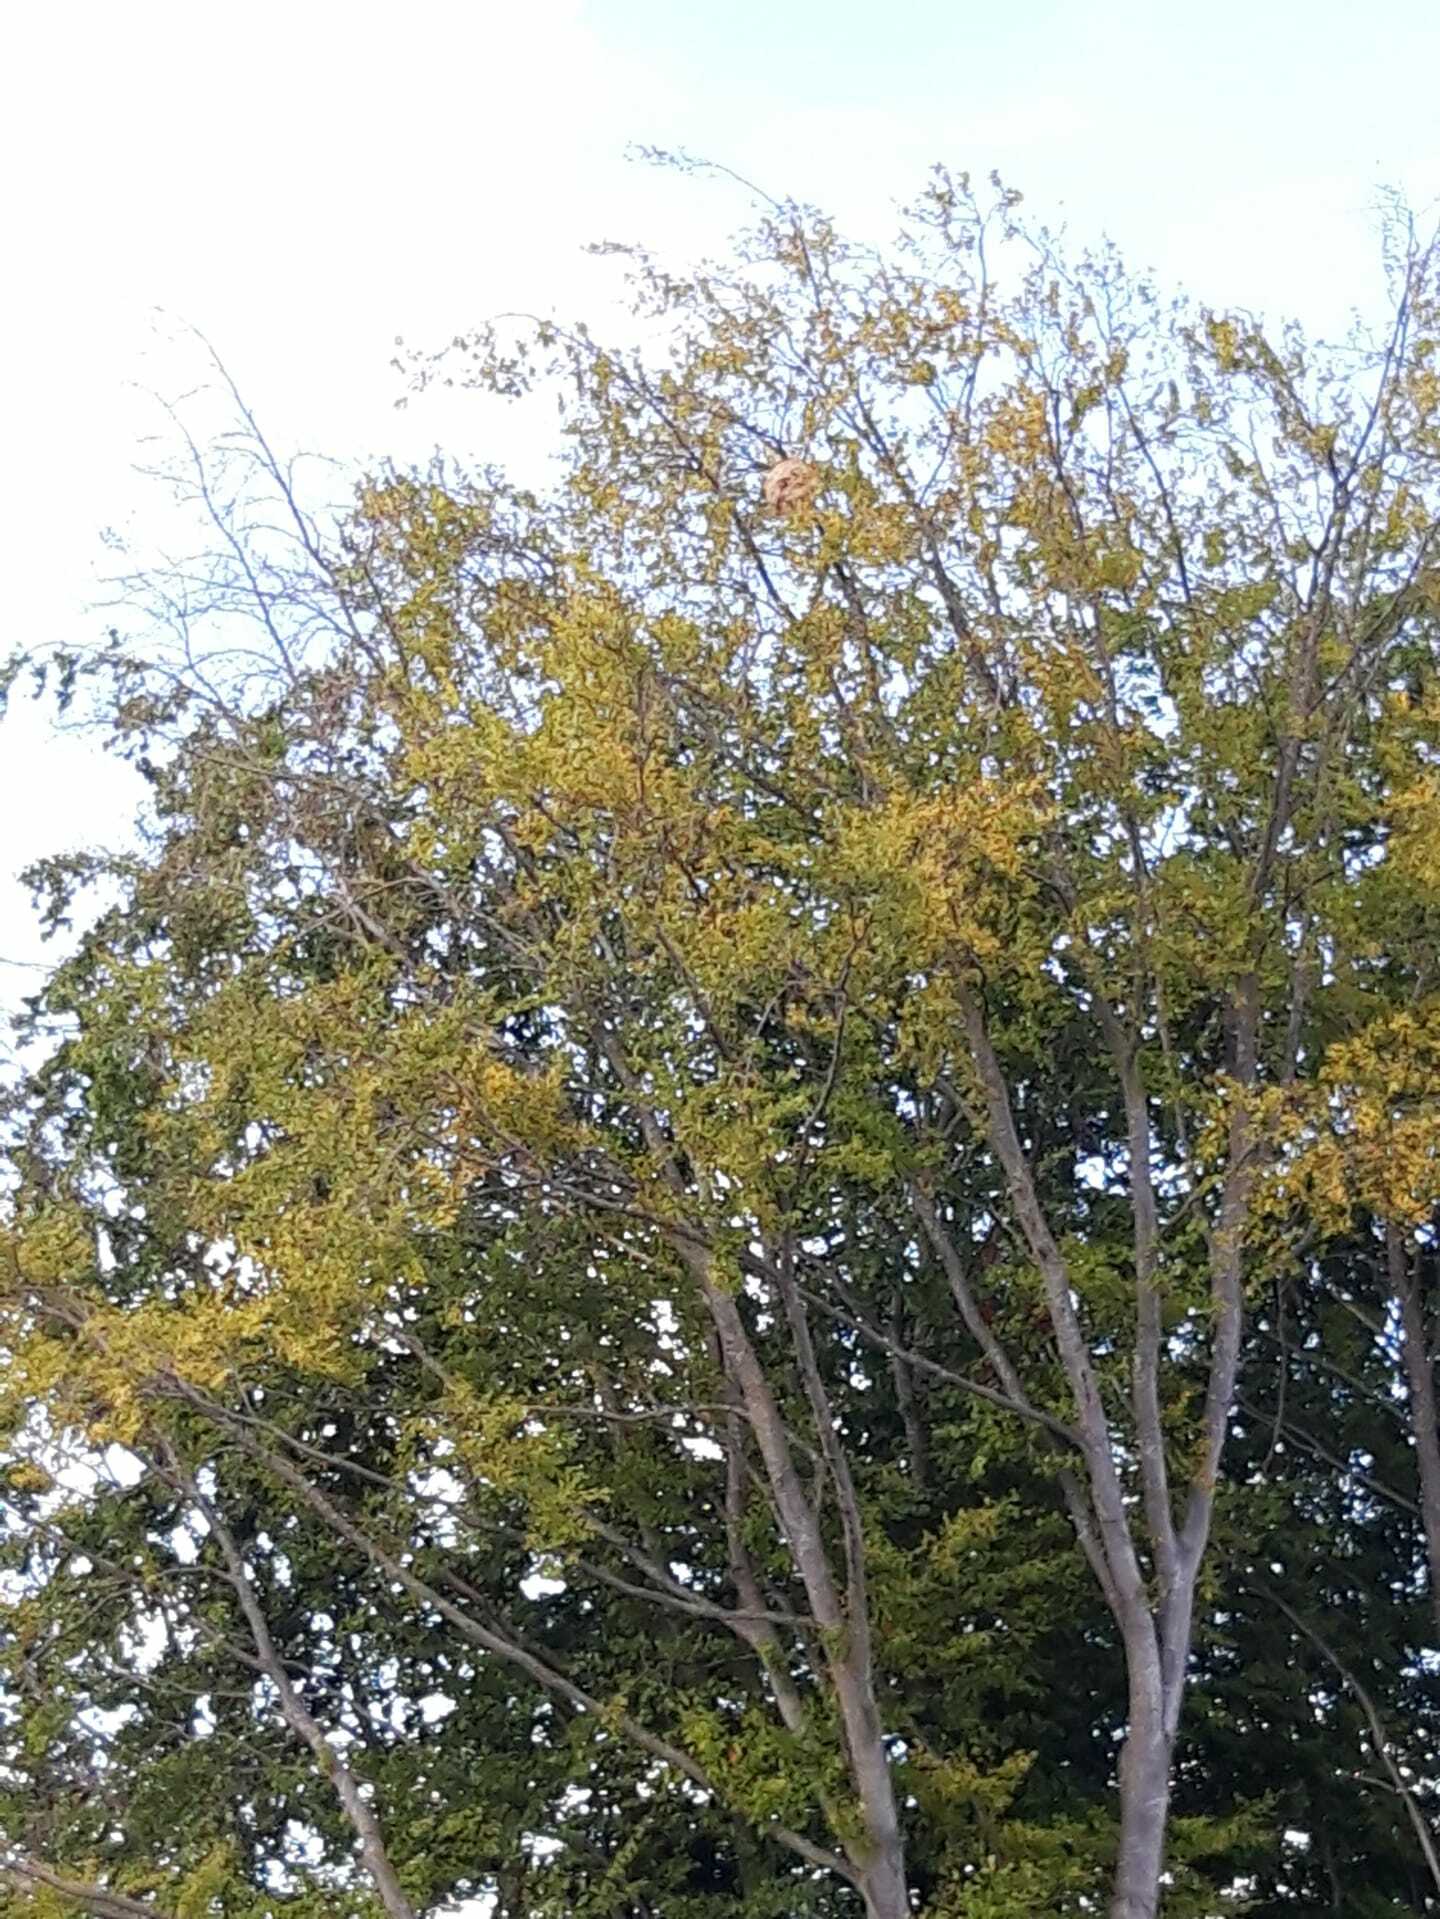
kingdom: Animalia
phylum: Arthropoda
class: Insecta
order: Hymenoptera
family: Vespidae
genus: Vespa
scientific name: Vespa velutina
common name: Asian hornet
